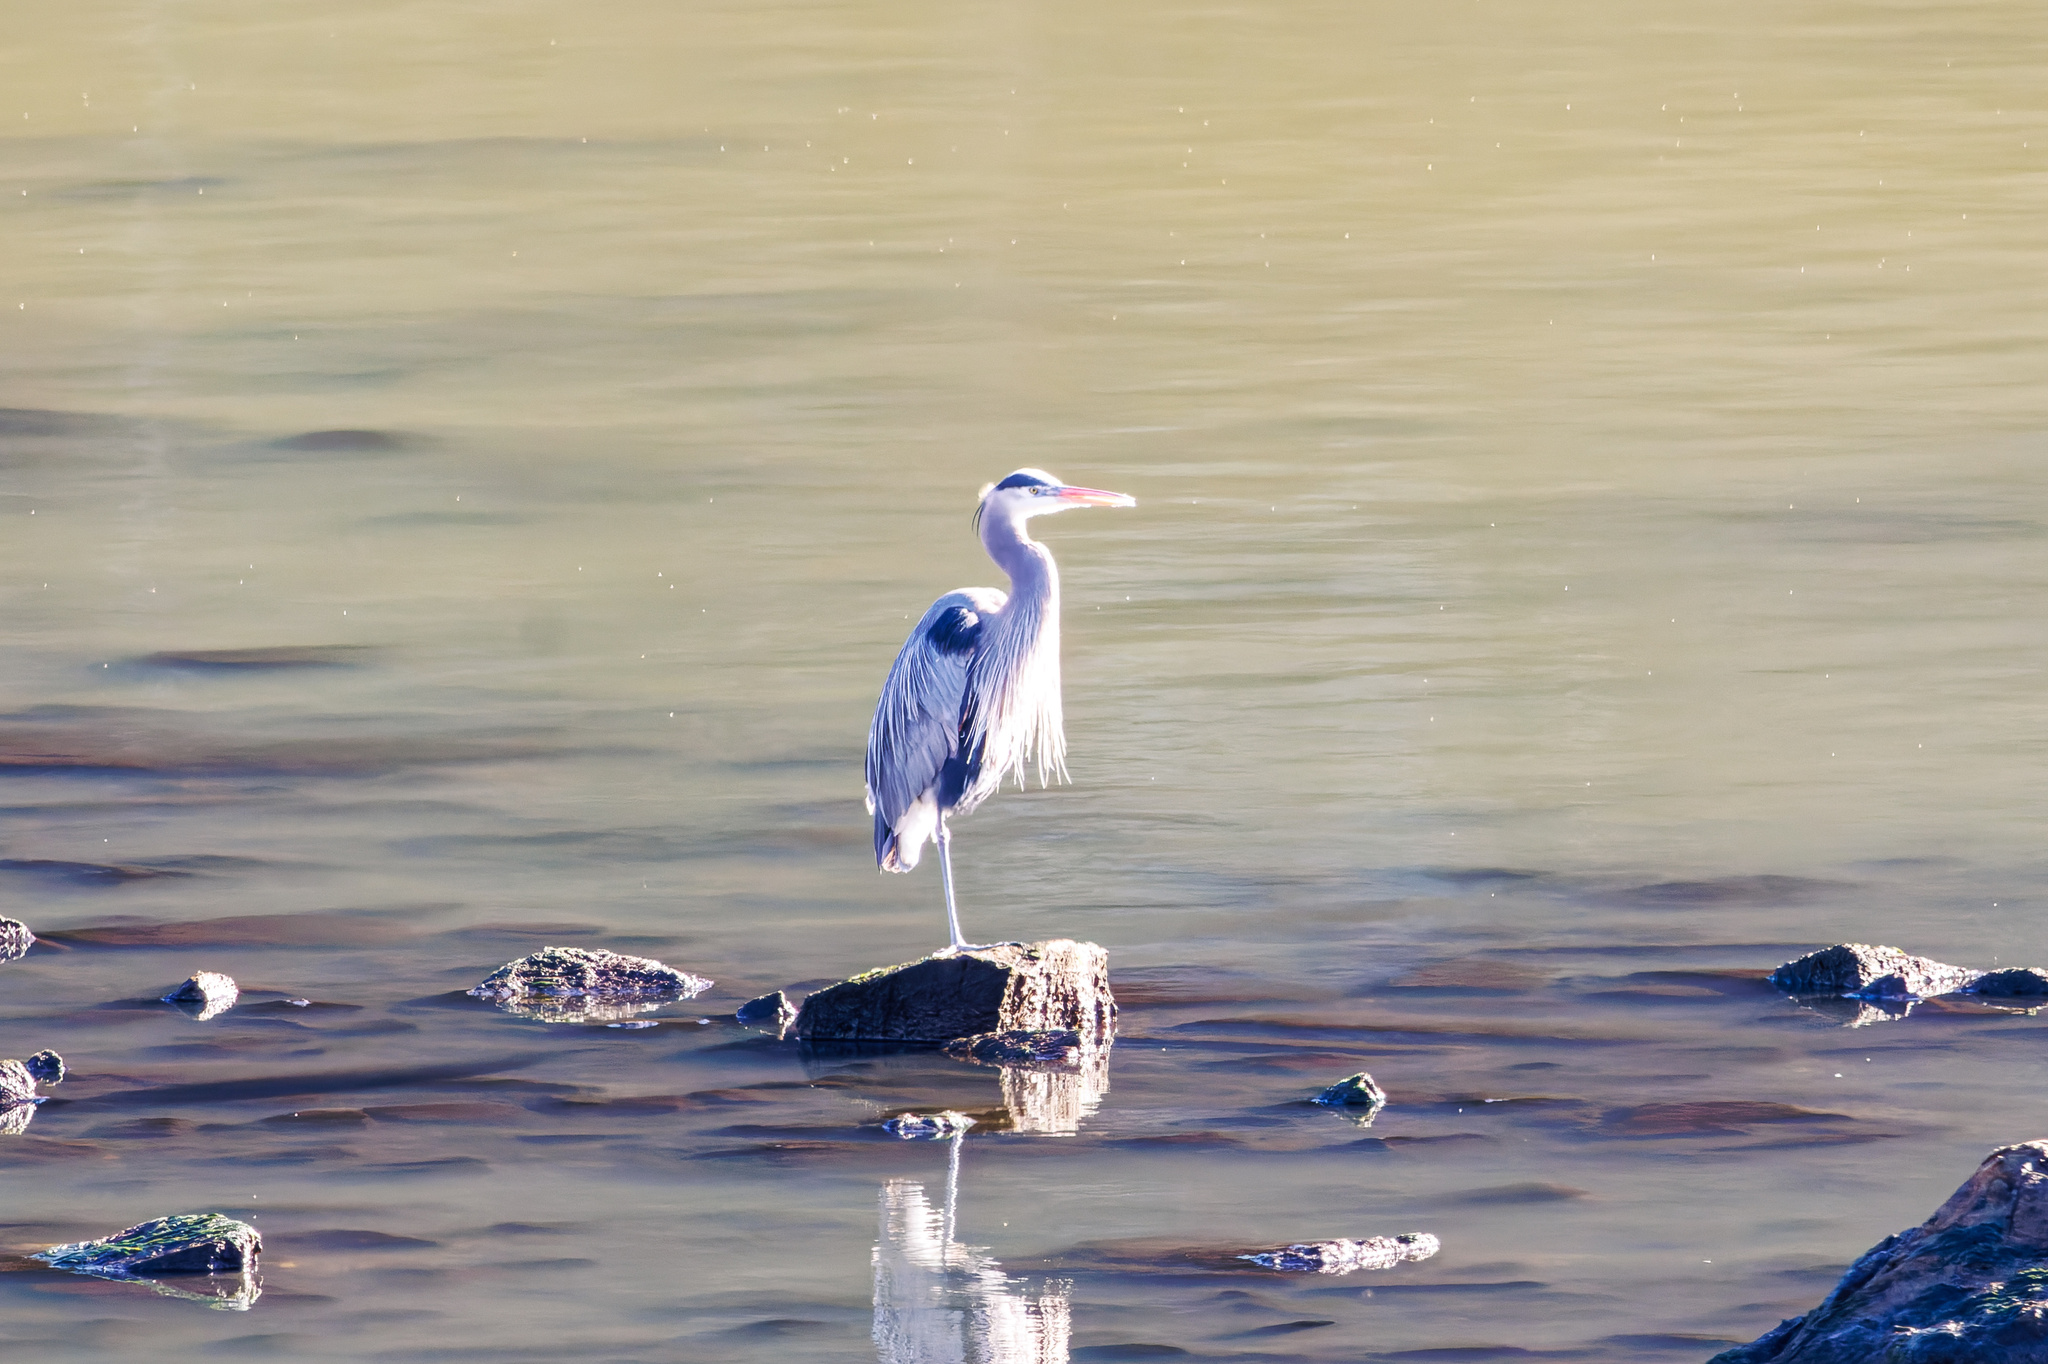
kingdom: Animalia
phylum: Chordata
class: Aves
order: Pelecaniformes
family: Ardeidae
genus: Ardea
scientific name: Ardea herodias
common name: Great blue heron
